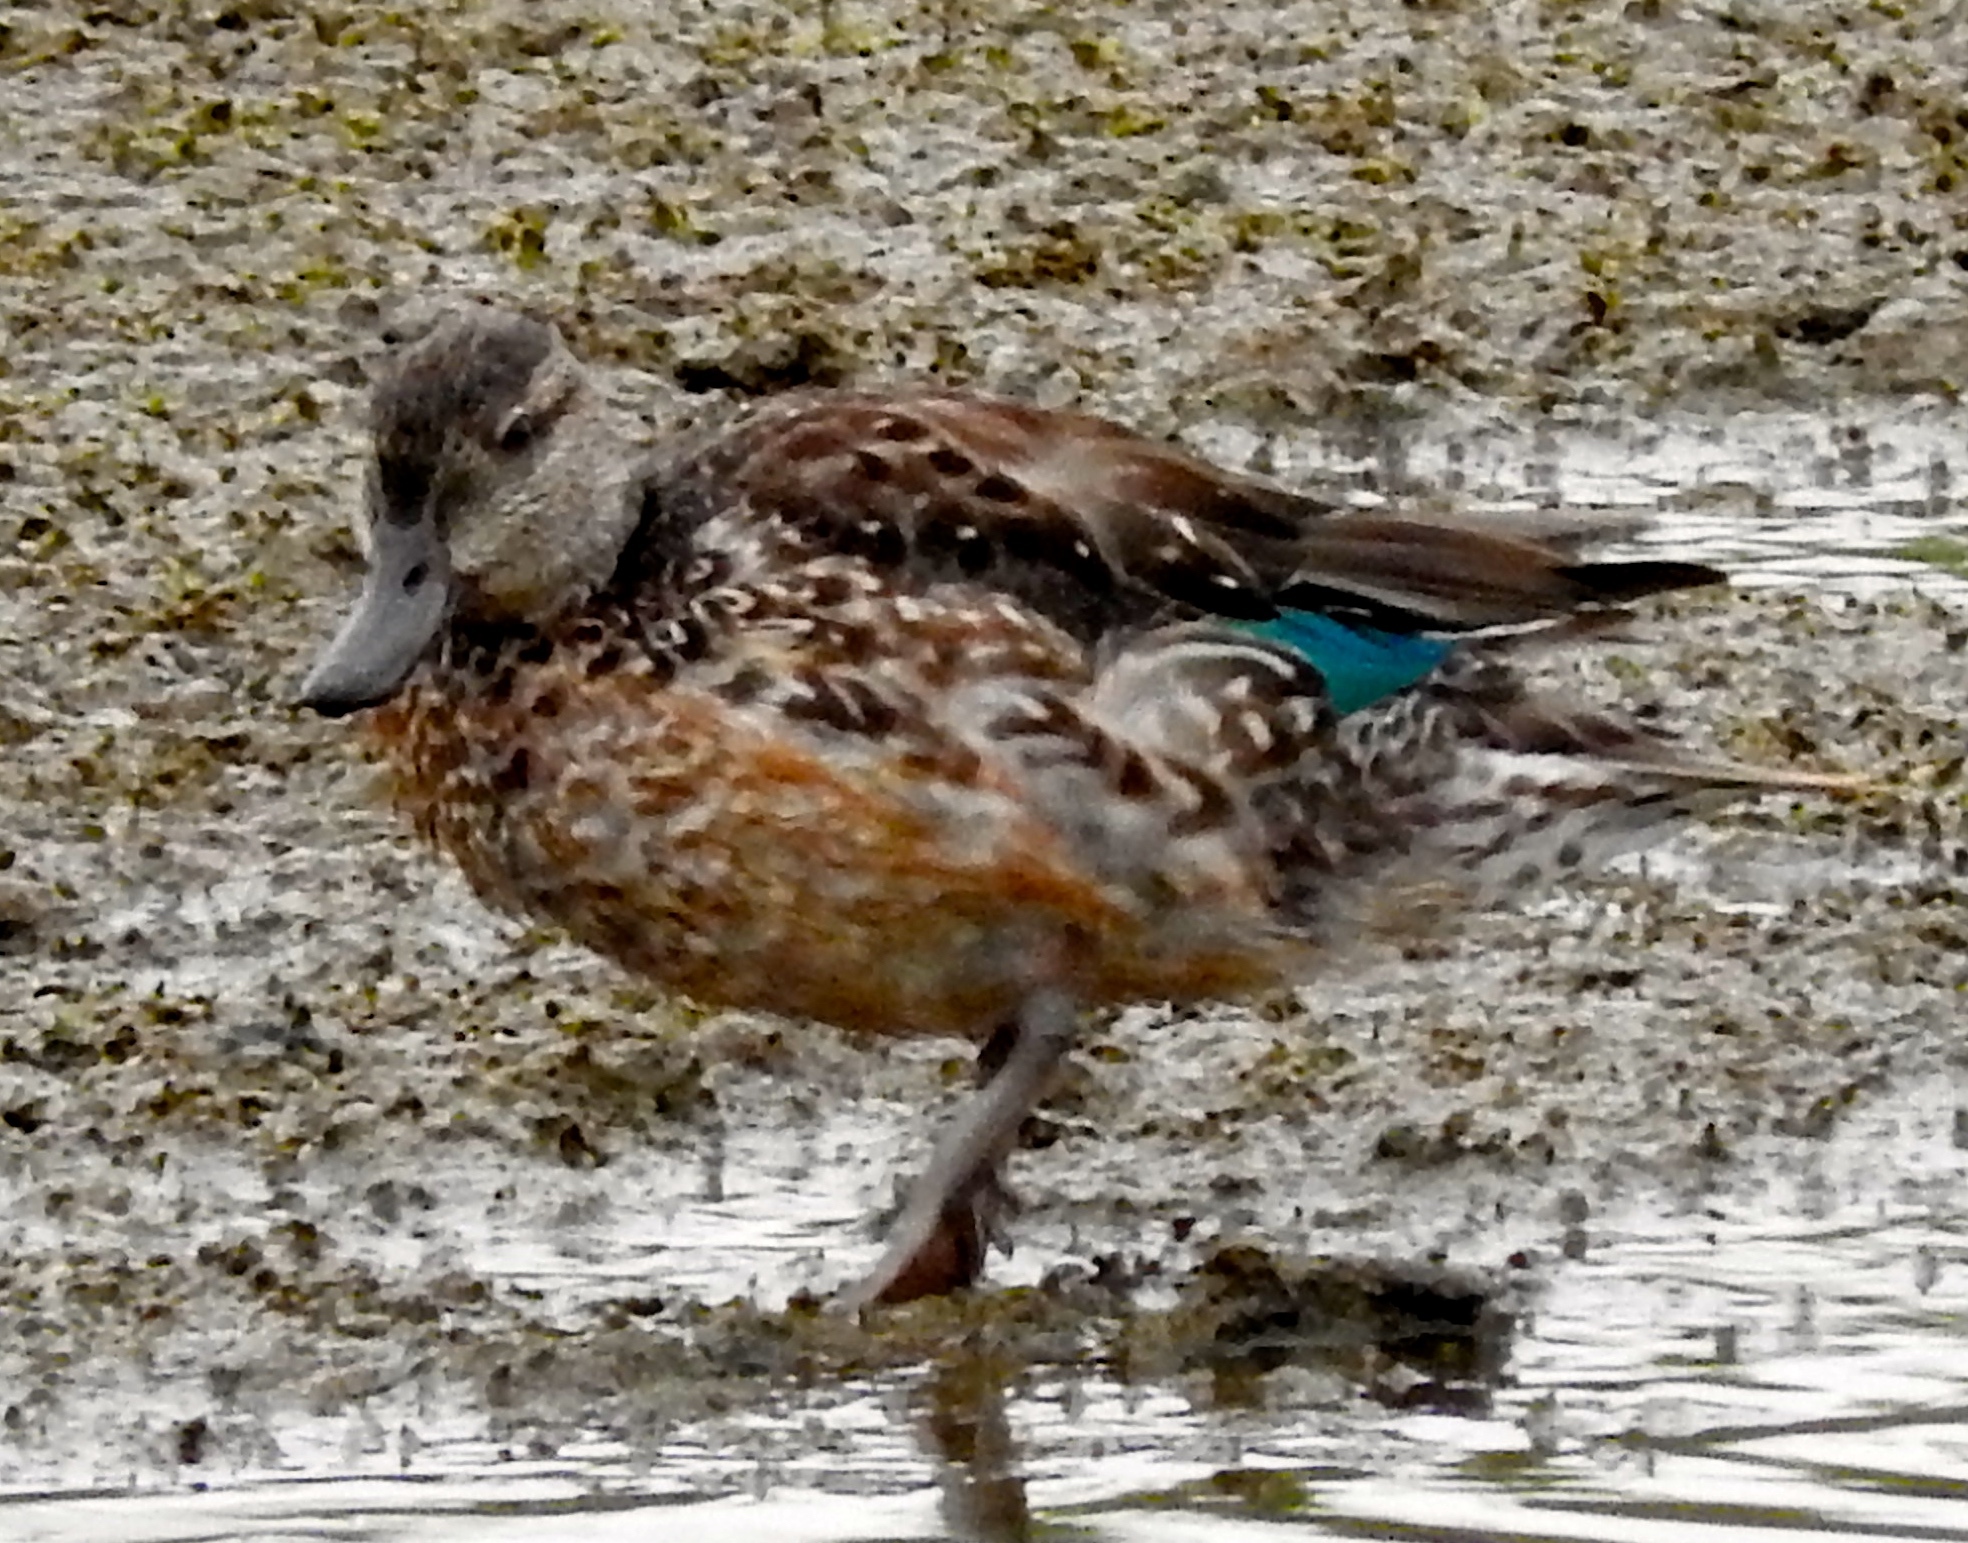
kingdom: Animalia
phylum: Chordata
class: Aves
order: Anseriformes
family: Anatidae
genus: Anas
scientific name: Anas crecca
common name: Eurasian teal
